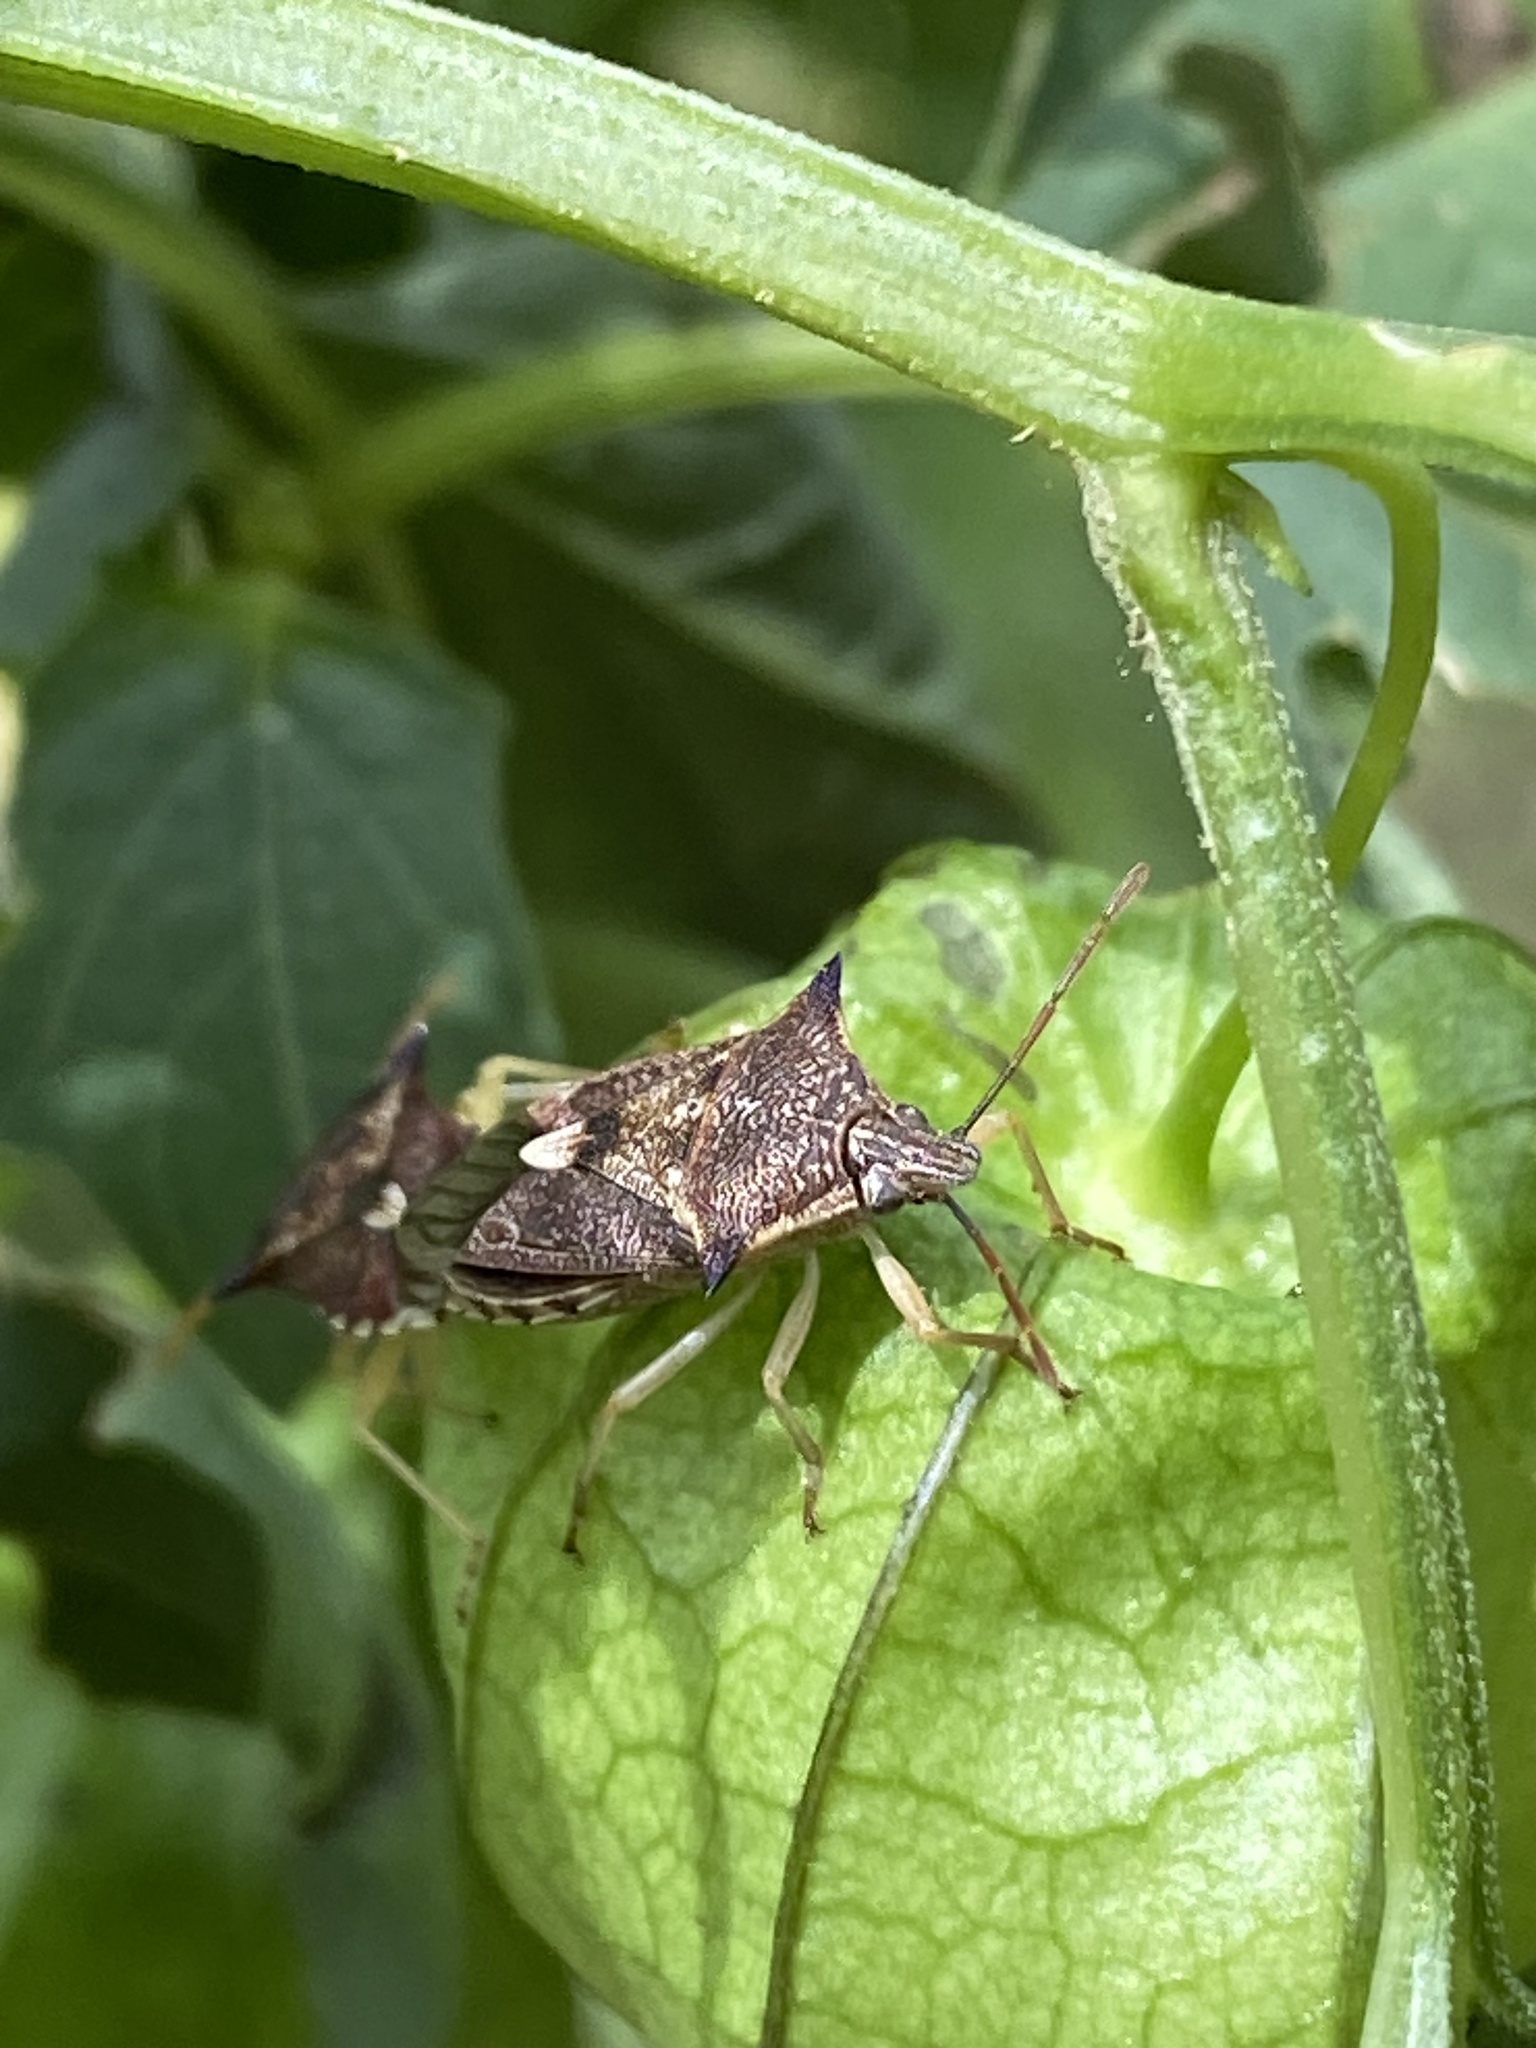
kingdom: Animalia
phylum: Arthropoda
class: Insecta
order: Hemiptera
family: Pentatomidae
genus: Oechalia
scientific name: Oechalia schellenbergii
